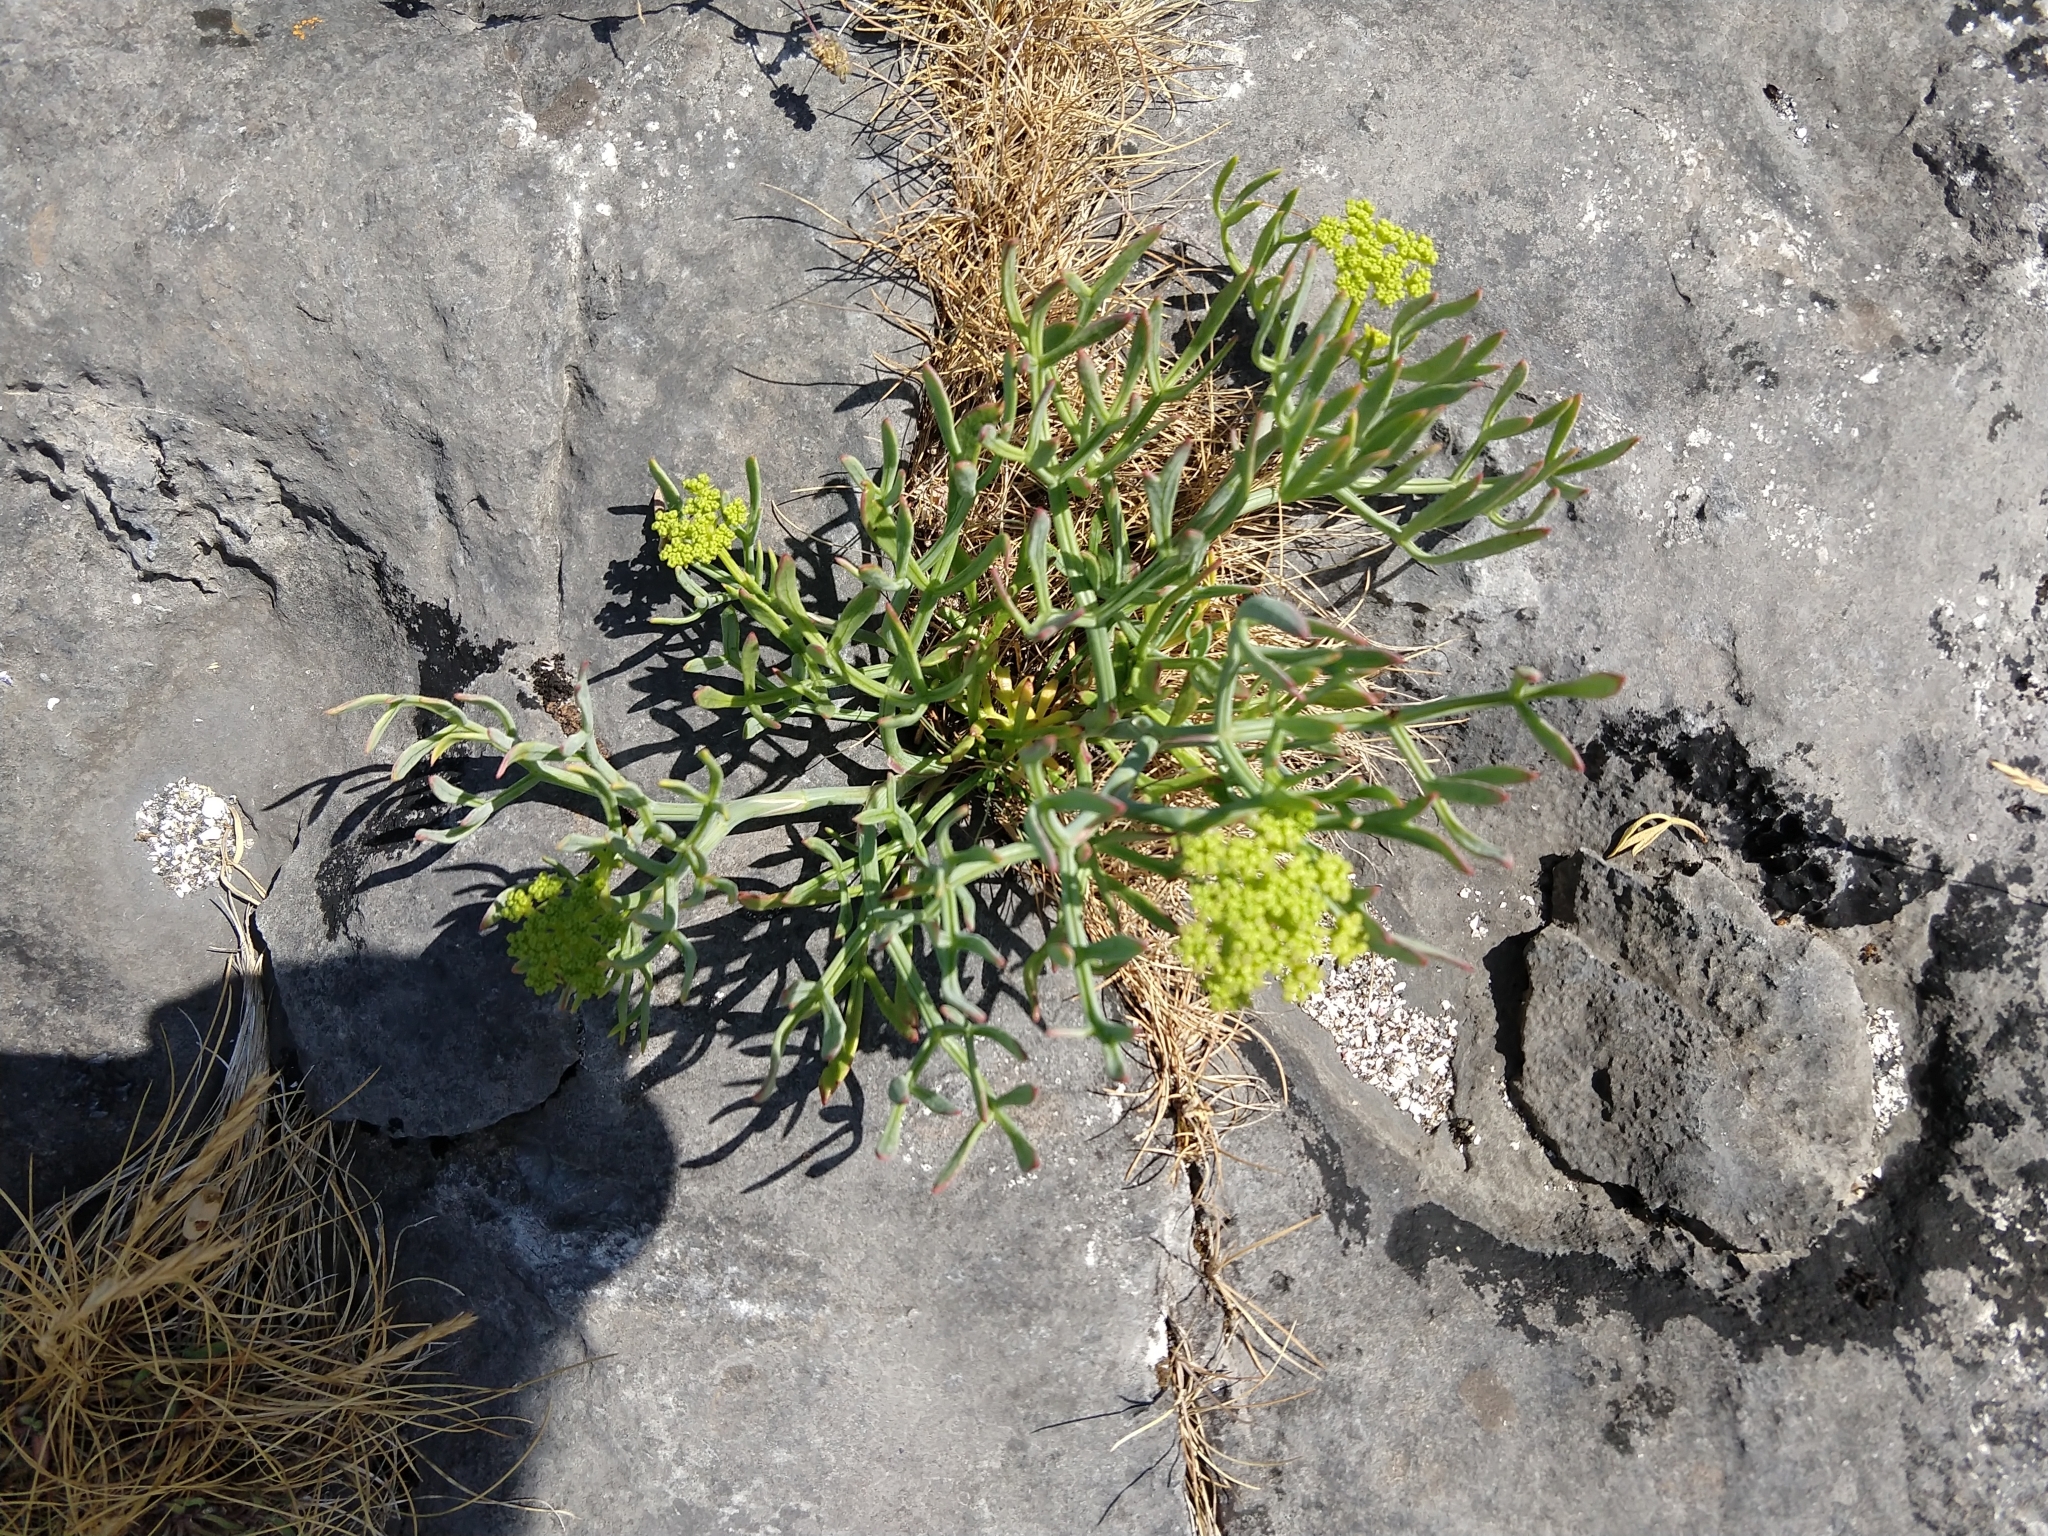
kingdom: Plantae
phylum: Tracheophyta
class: Magnoliopsida
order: Apiales
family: Apiaceae
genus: Crithmum
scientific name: Crithmum maritimum
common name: Rock samphire
